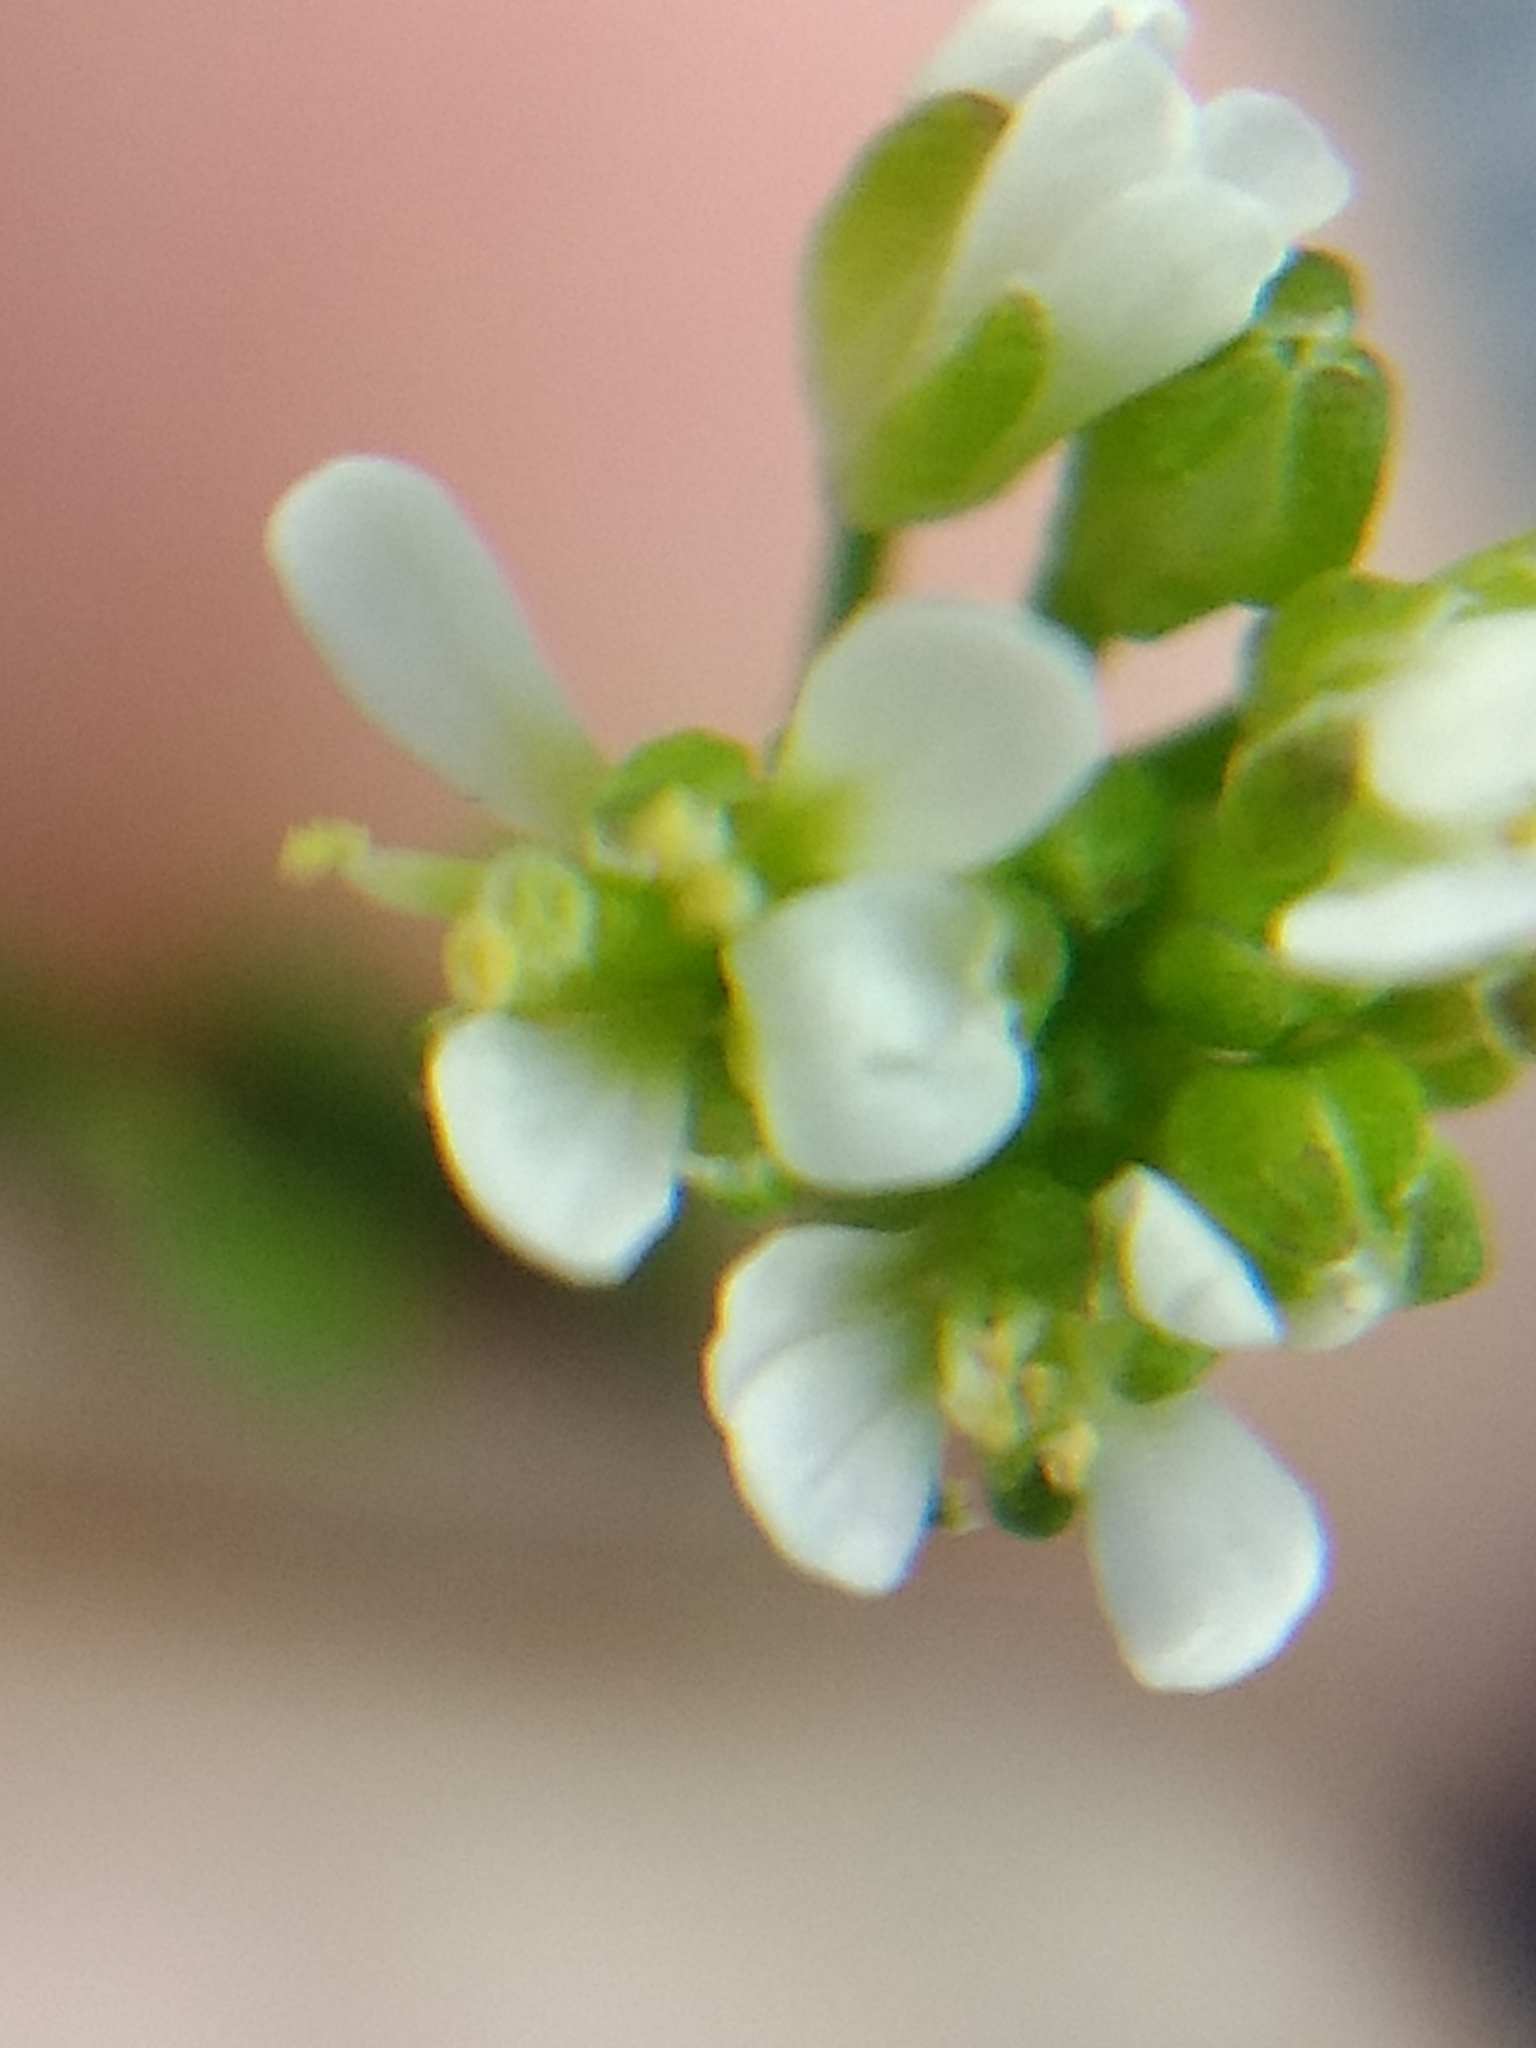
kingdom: Plantae
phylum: Tracheophyta
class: Magnoliopsida
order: Brassicales
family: Brassicaceae
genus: Cardamine
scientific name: Cardamine hirsuta
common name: Hairy bittercress
